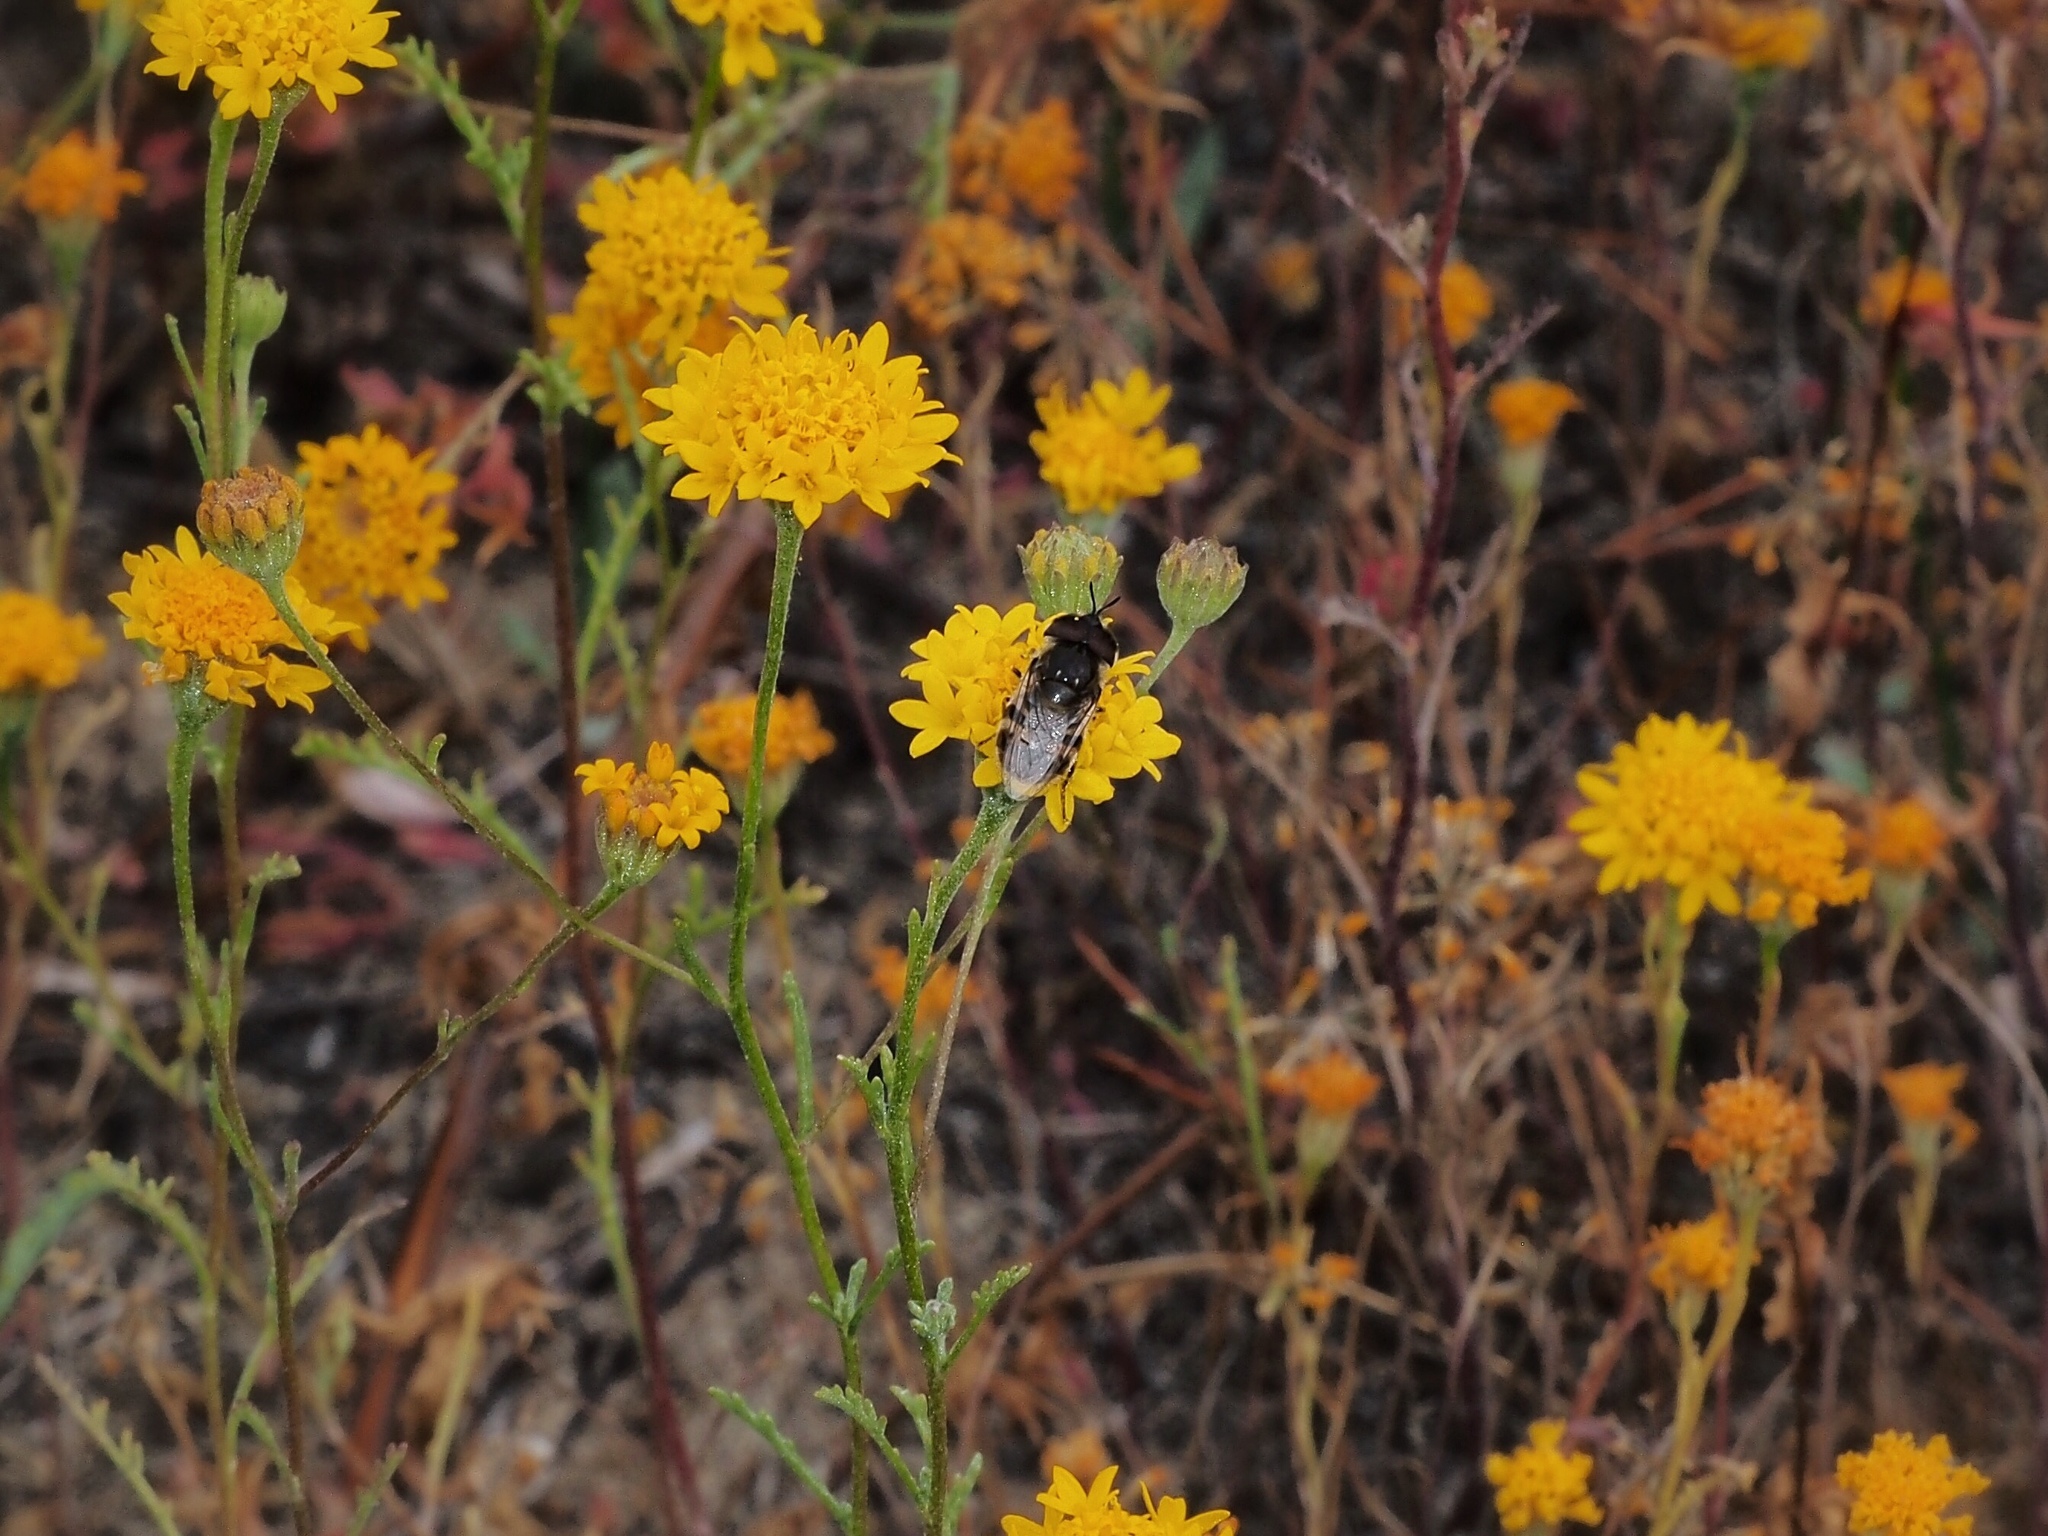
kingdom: Animalia
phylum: Arthropoda
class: Insecta
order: Diptera
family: Syrphidae
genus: Copestylum
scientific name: Copestylum marginatum
